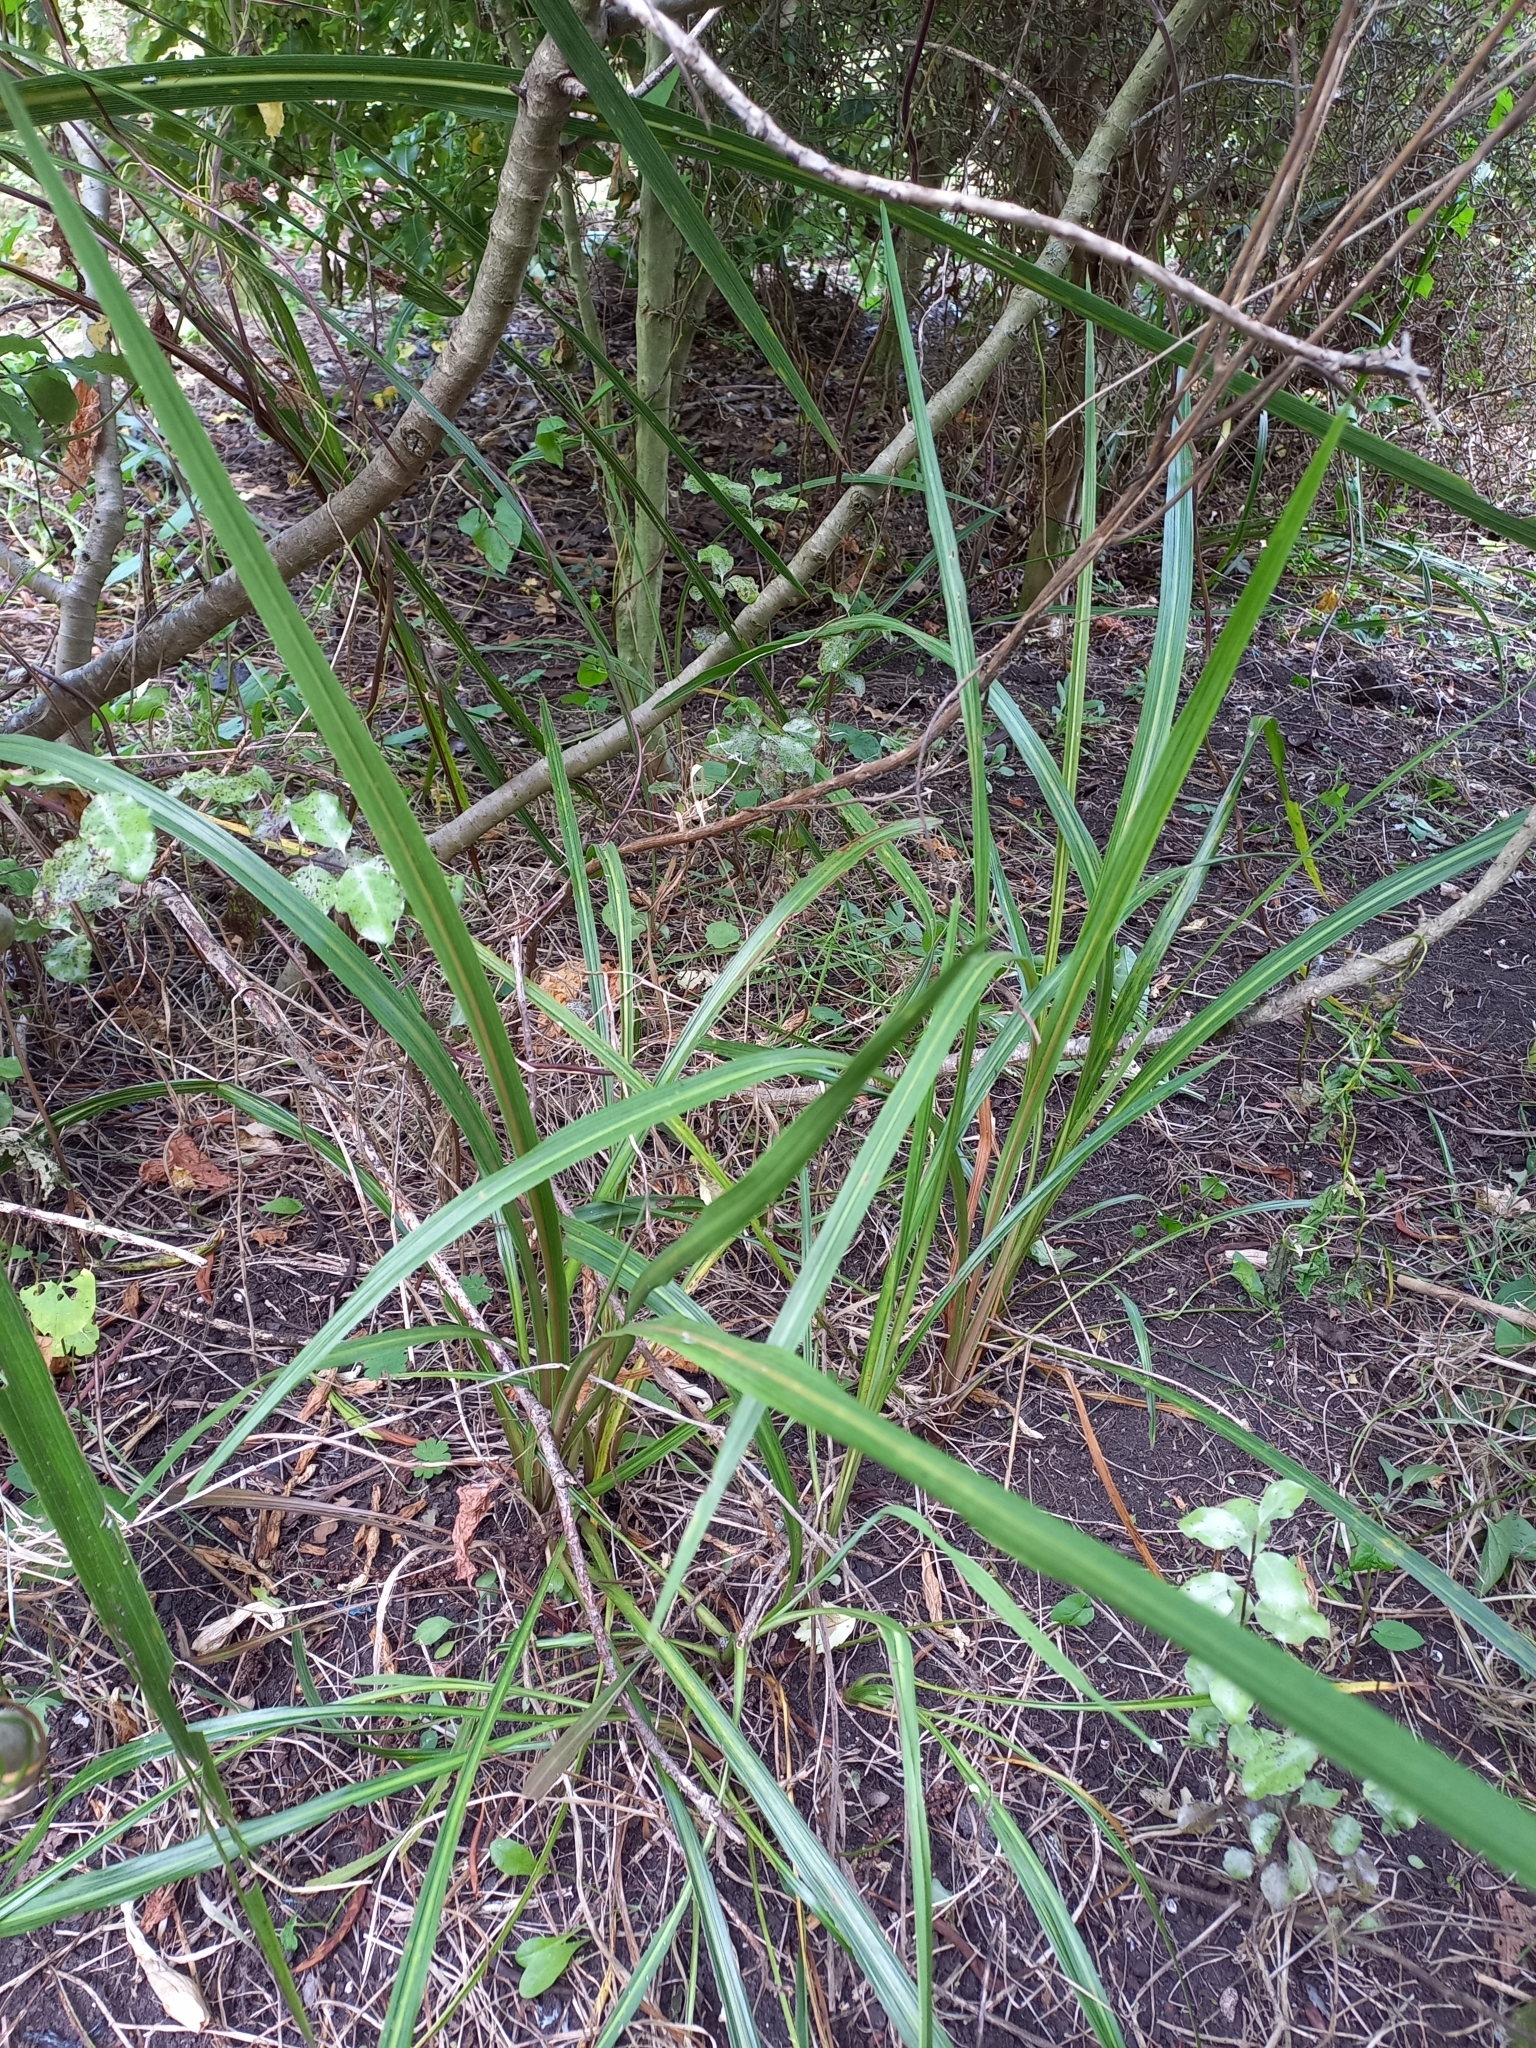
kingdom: Plantae
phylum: Tracheophyta
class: Liliopsida
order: Asparagales
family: Asparagaceae
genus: Cordyline
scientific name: Cordyline australis
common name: Cabbage-palm
